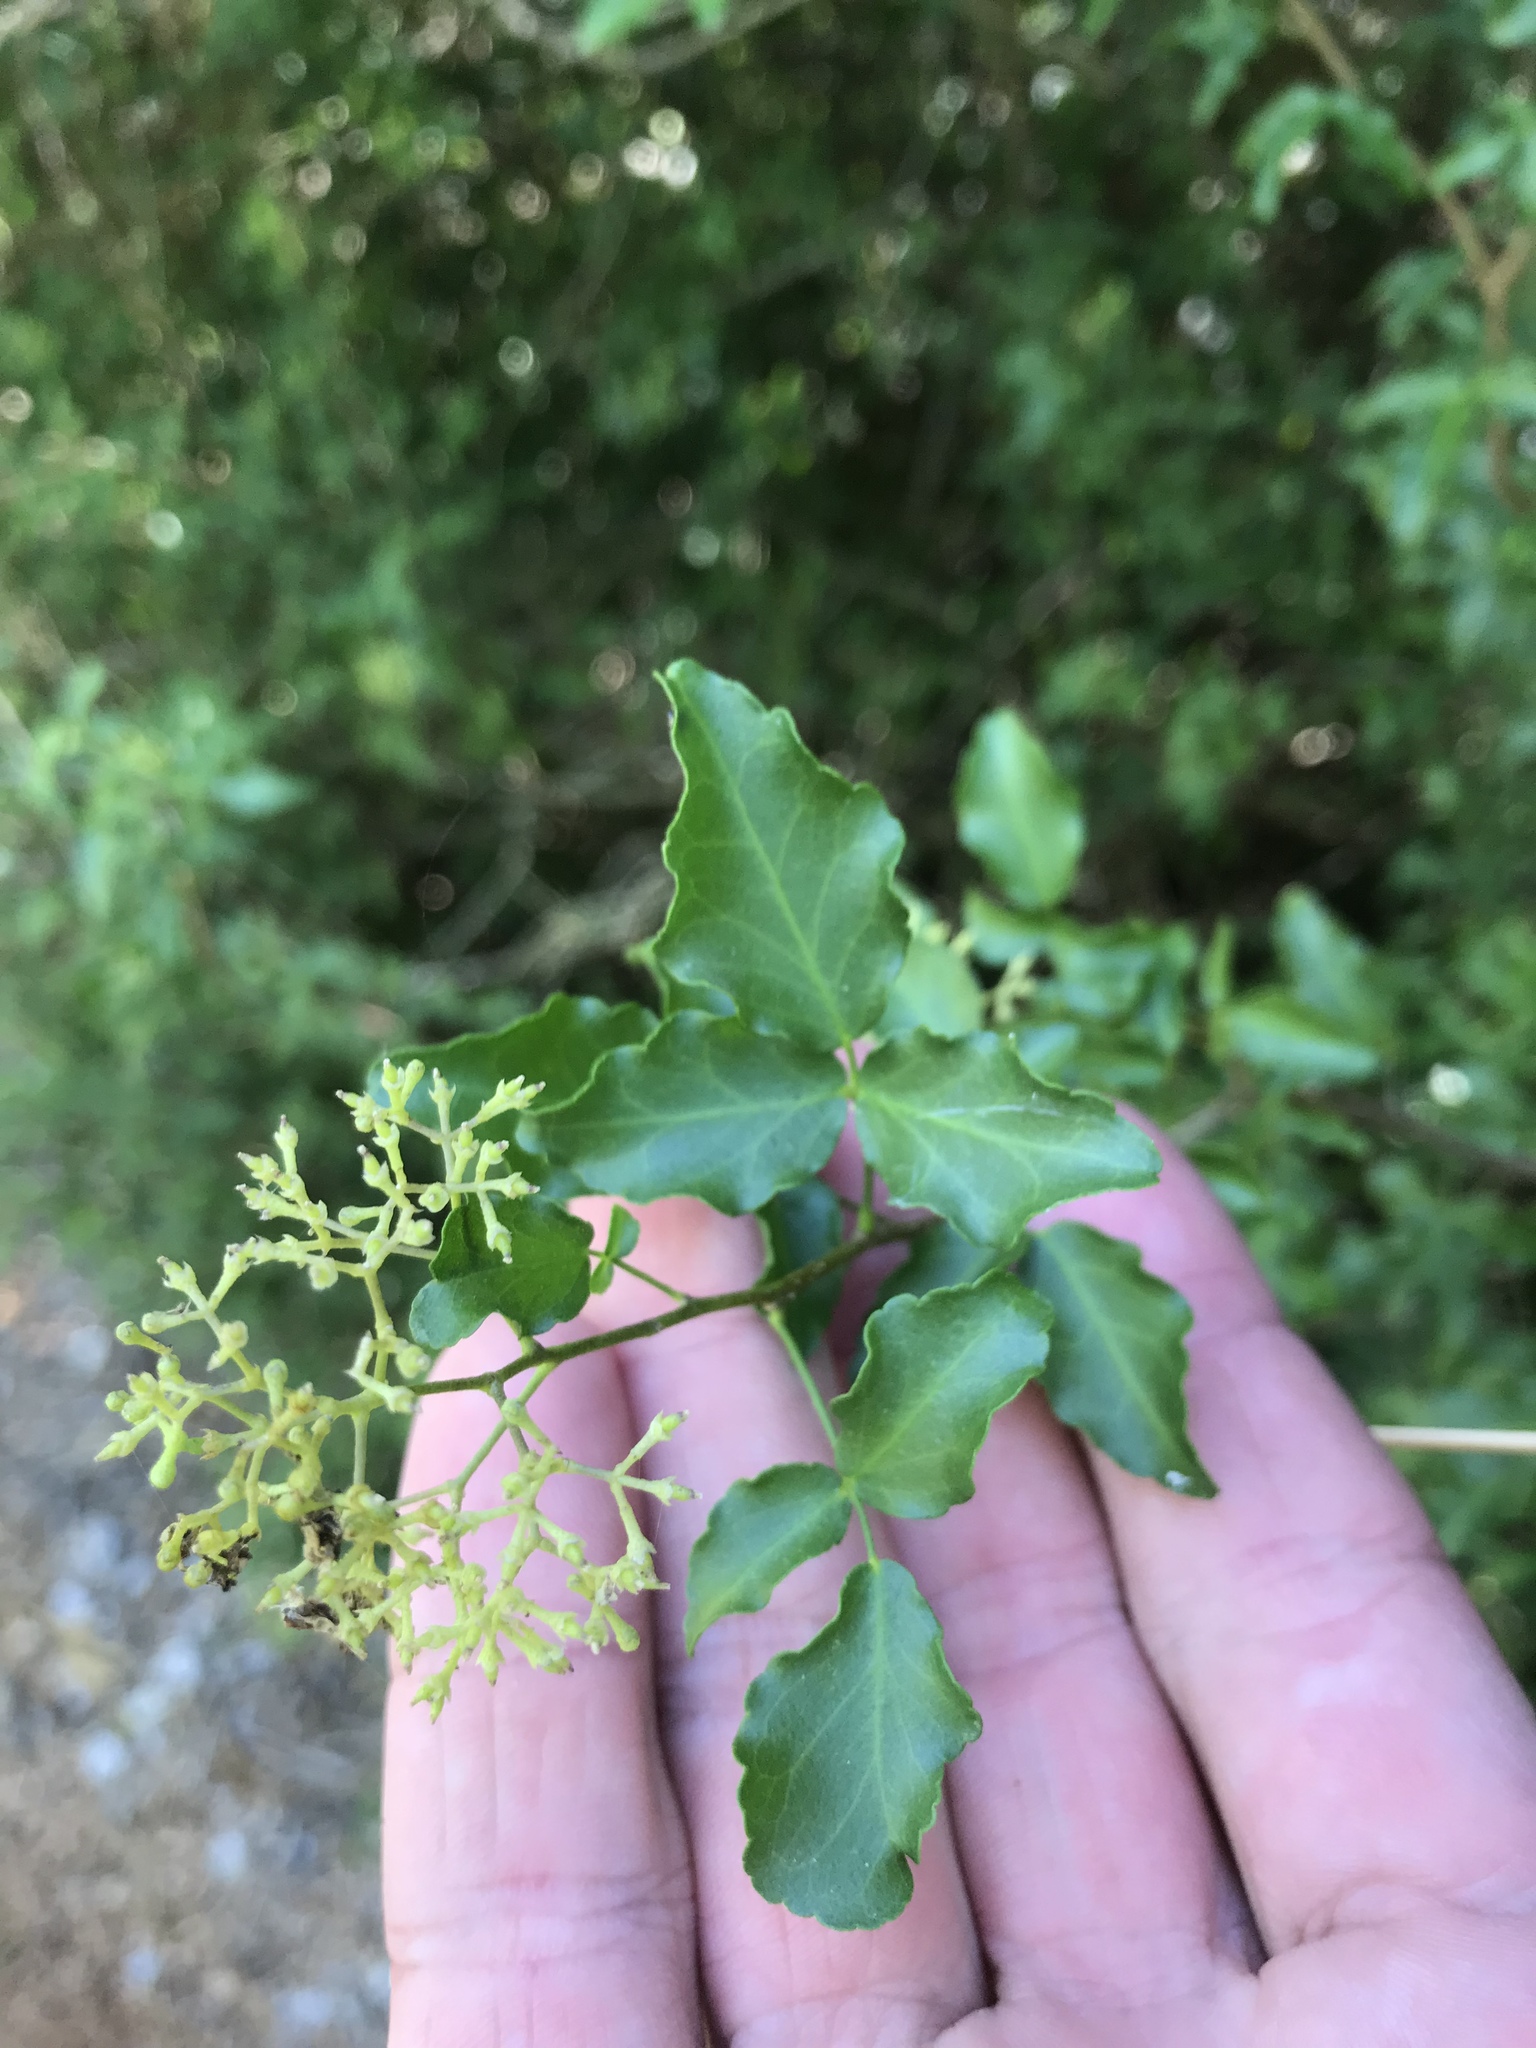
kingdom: Plantae
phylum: Tracheophyta
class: Magnoliopsida
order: Sapindales
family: Rutaceae
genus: Amyris
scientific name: Amyris texana
